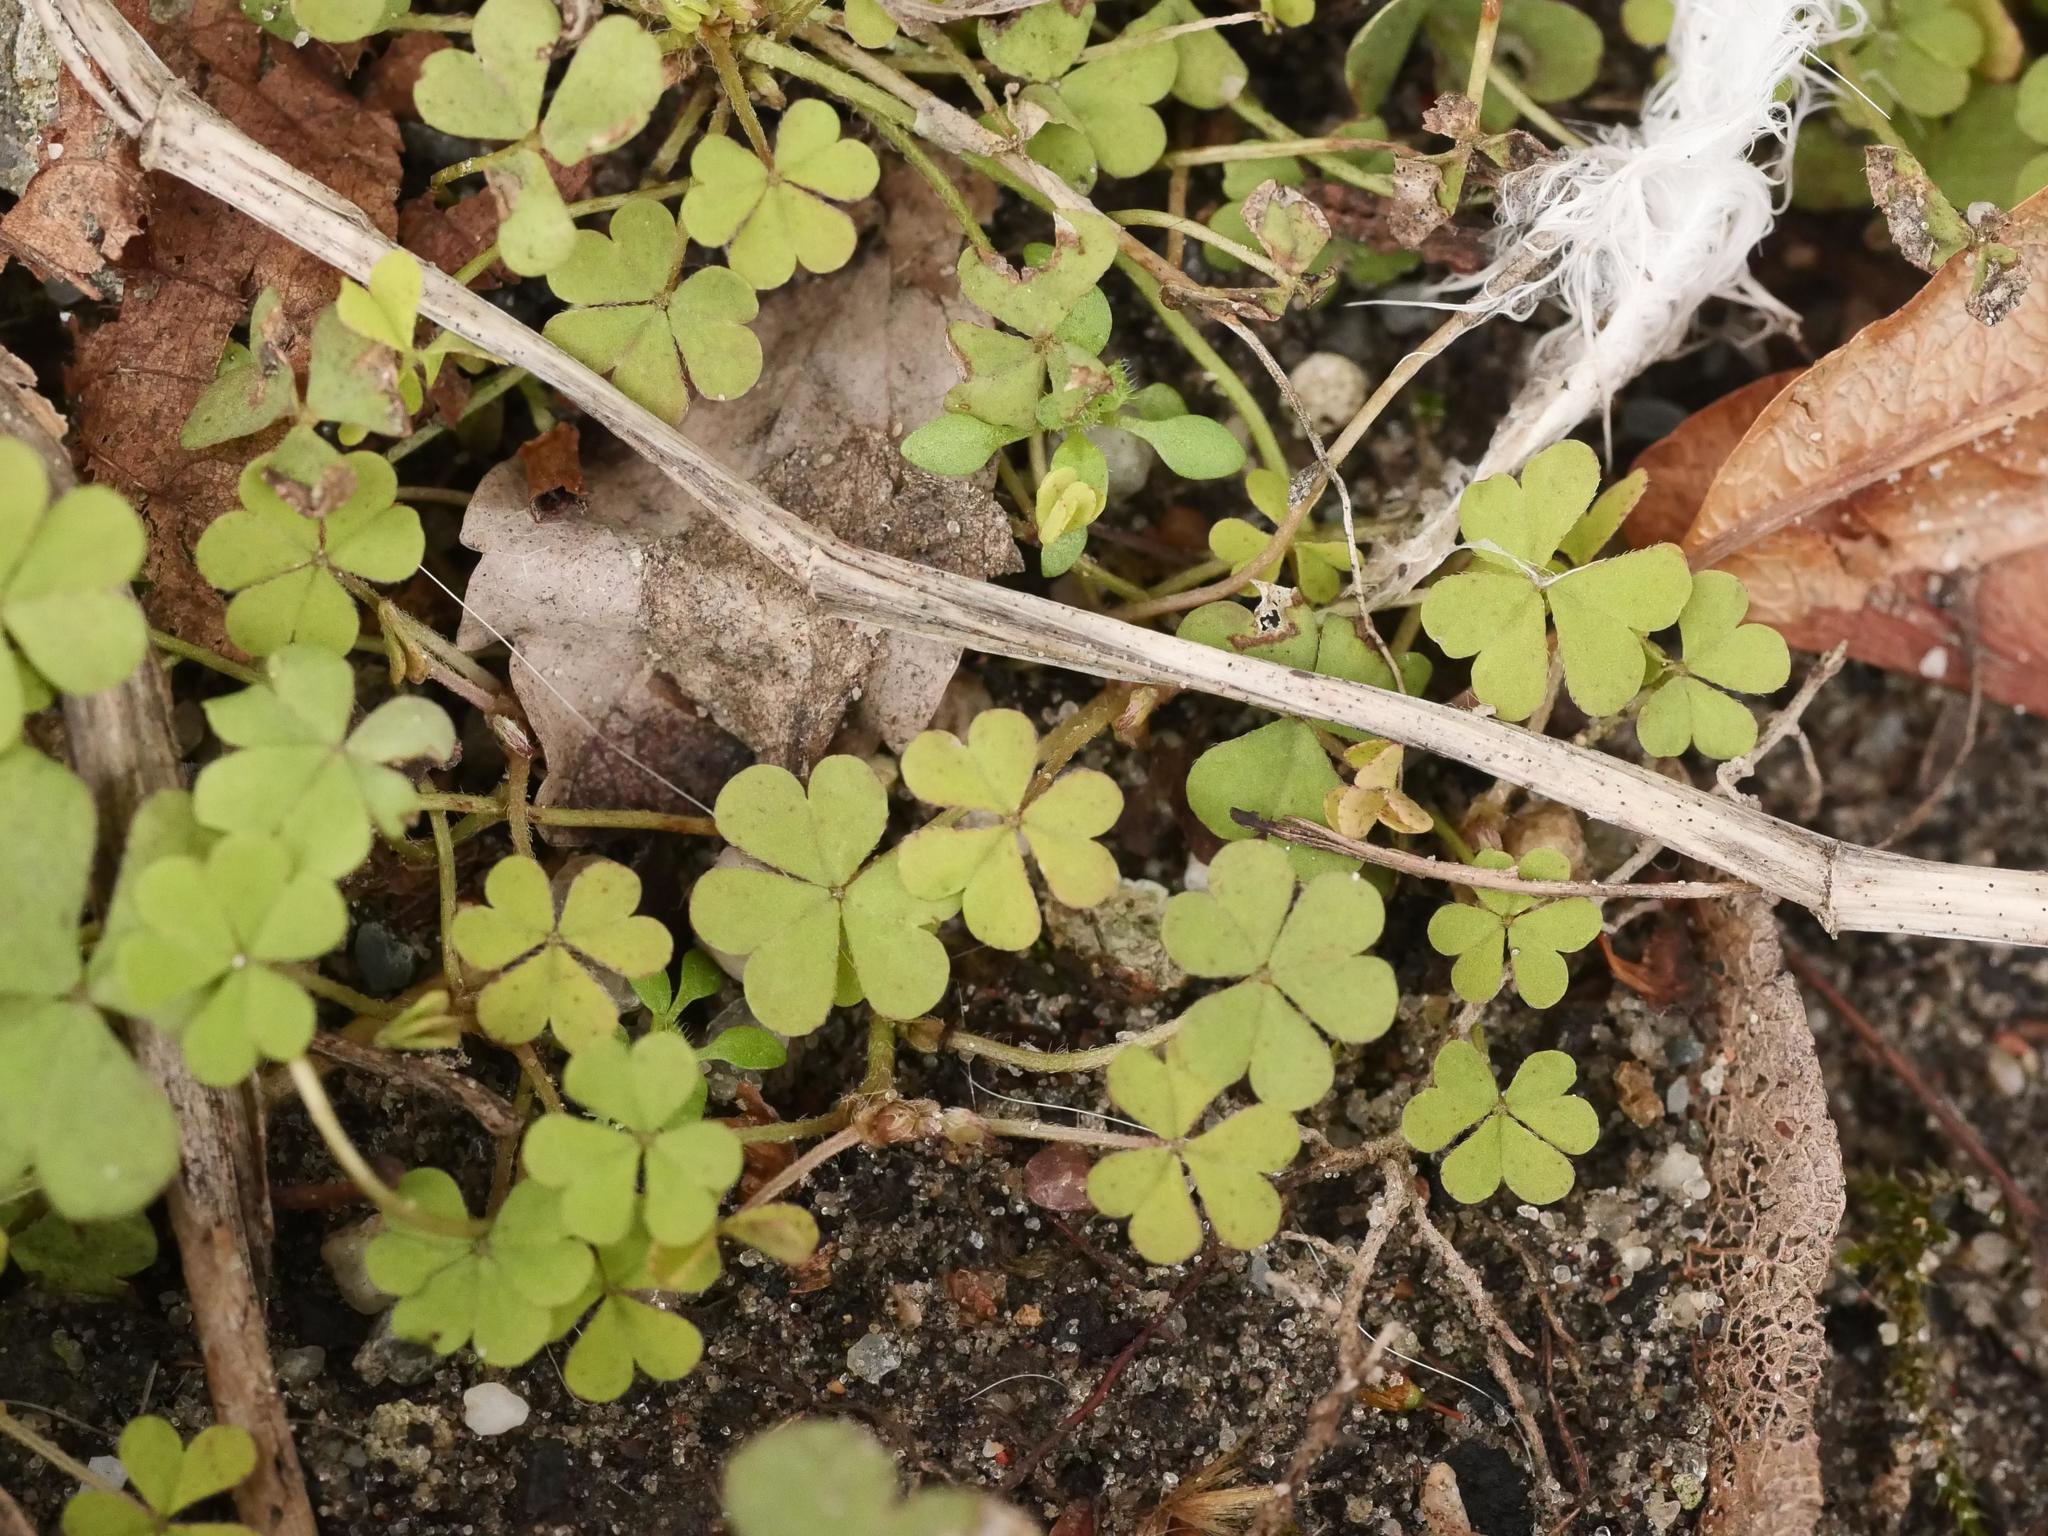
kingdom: Plantae
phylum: Tracheophyta
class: Magnoliopsida
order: Oxalidales
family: Oxalidaceae
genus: Oxalis
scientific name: Oxalis corniculata
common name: Procumbent yellow-sorrel
